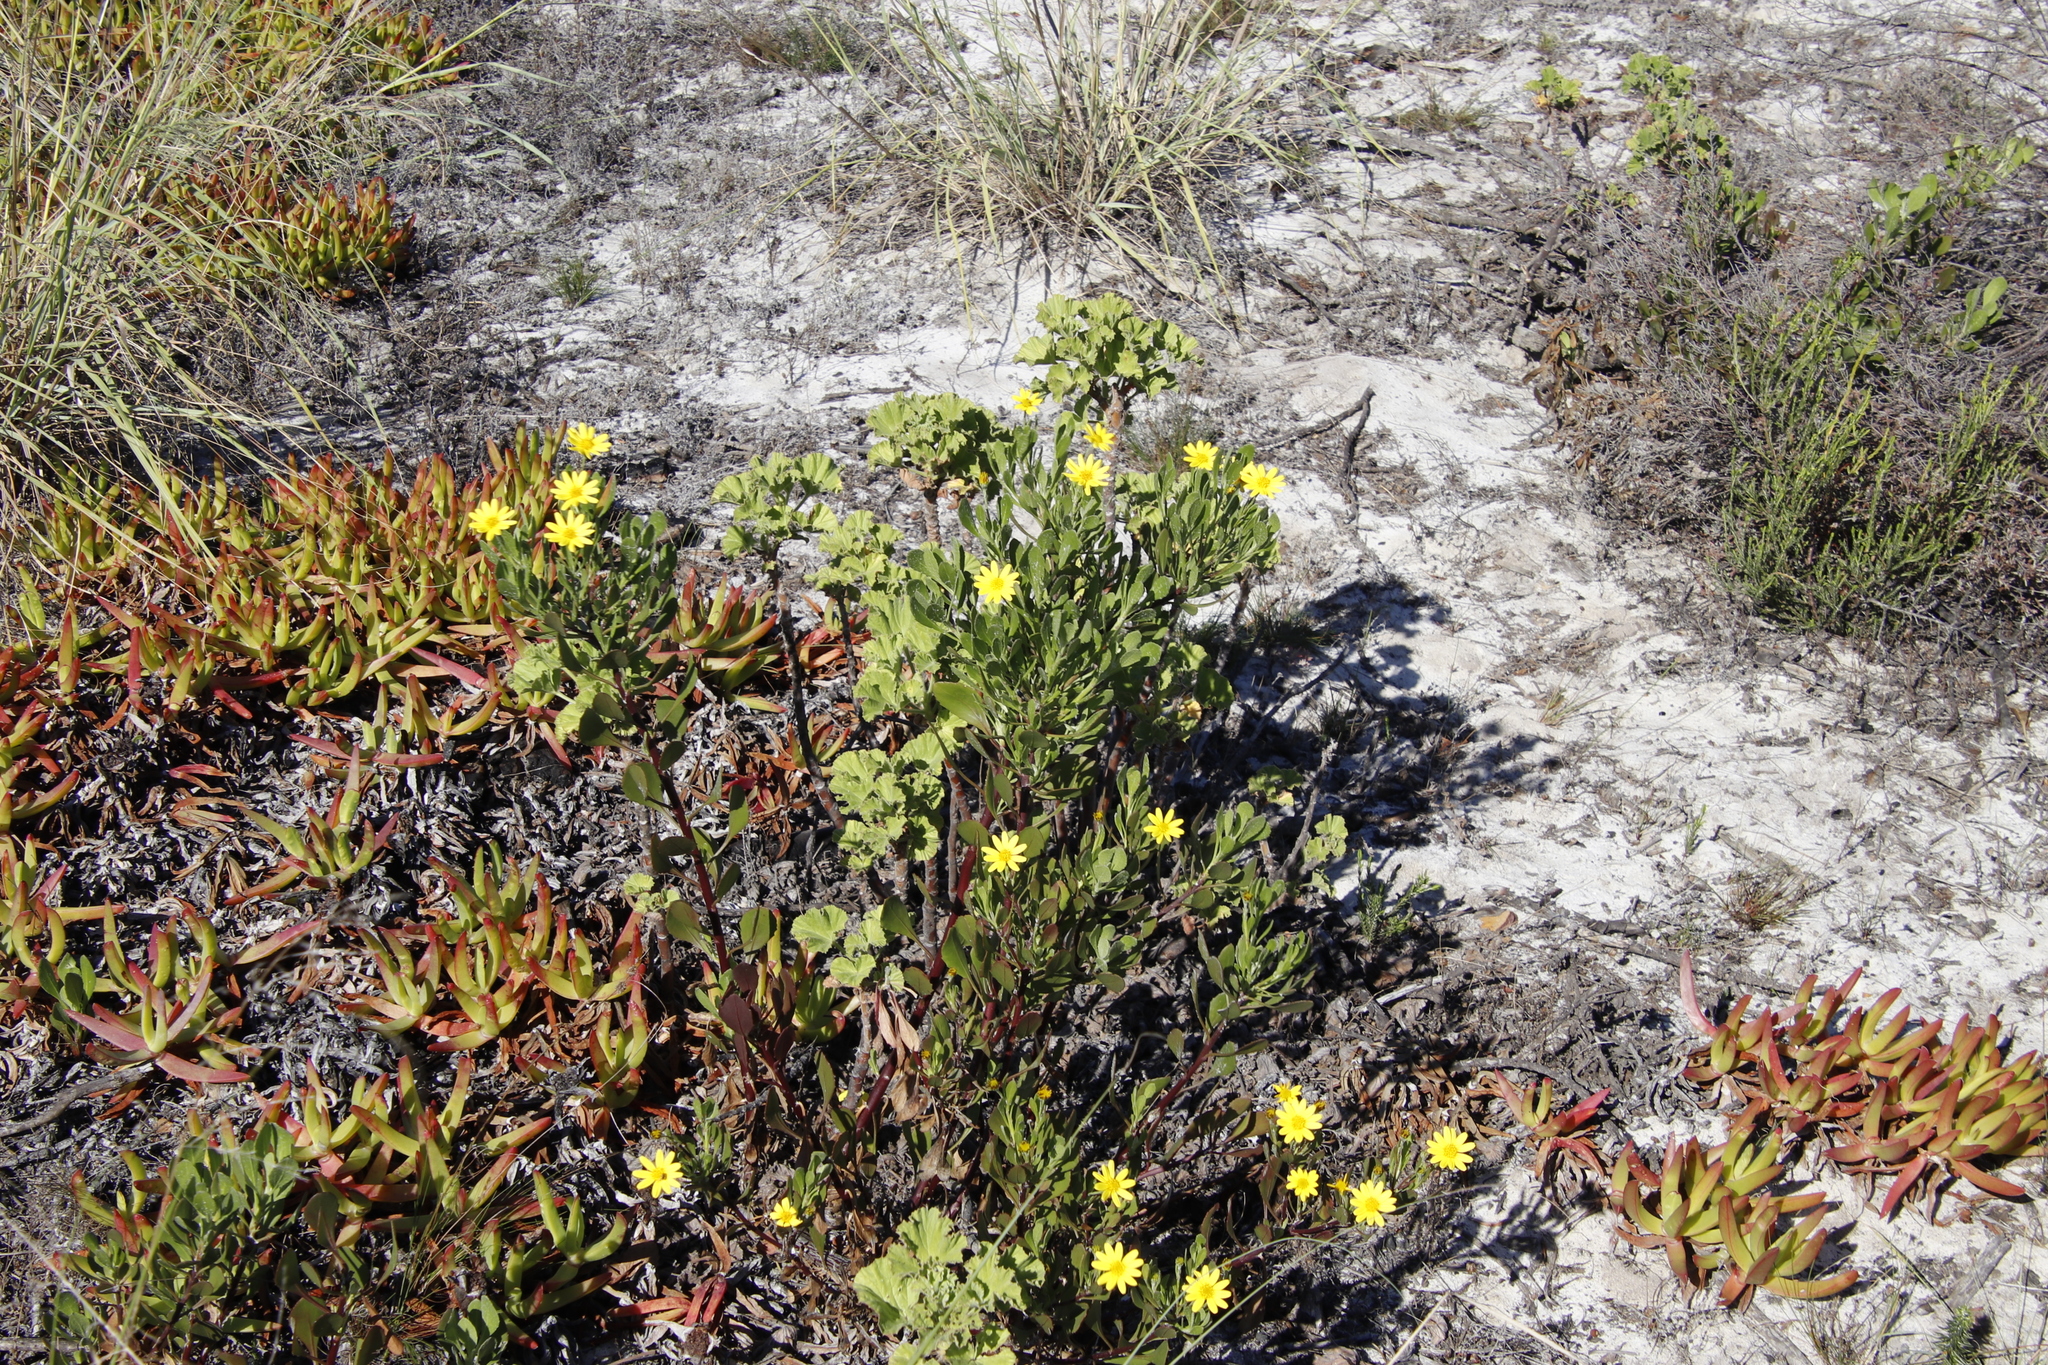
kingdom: Plantae
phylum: Tracheophyta
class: Magnoliopsida
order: Asterales
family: Asteraceae
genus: Osteospermum
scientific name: Osteospermum moniliferum
